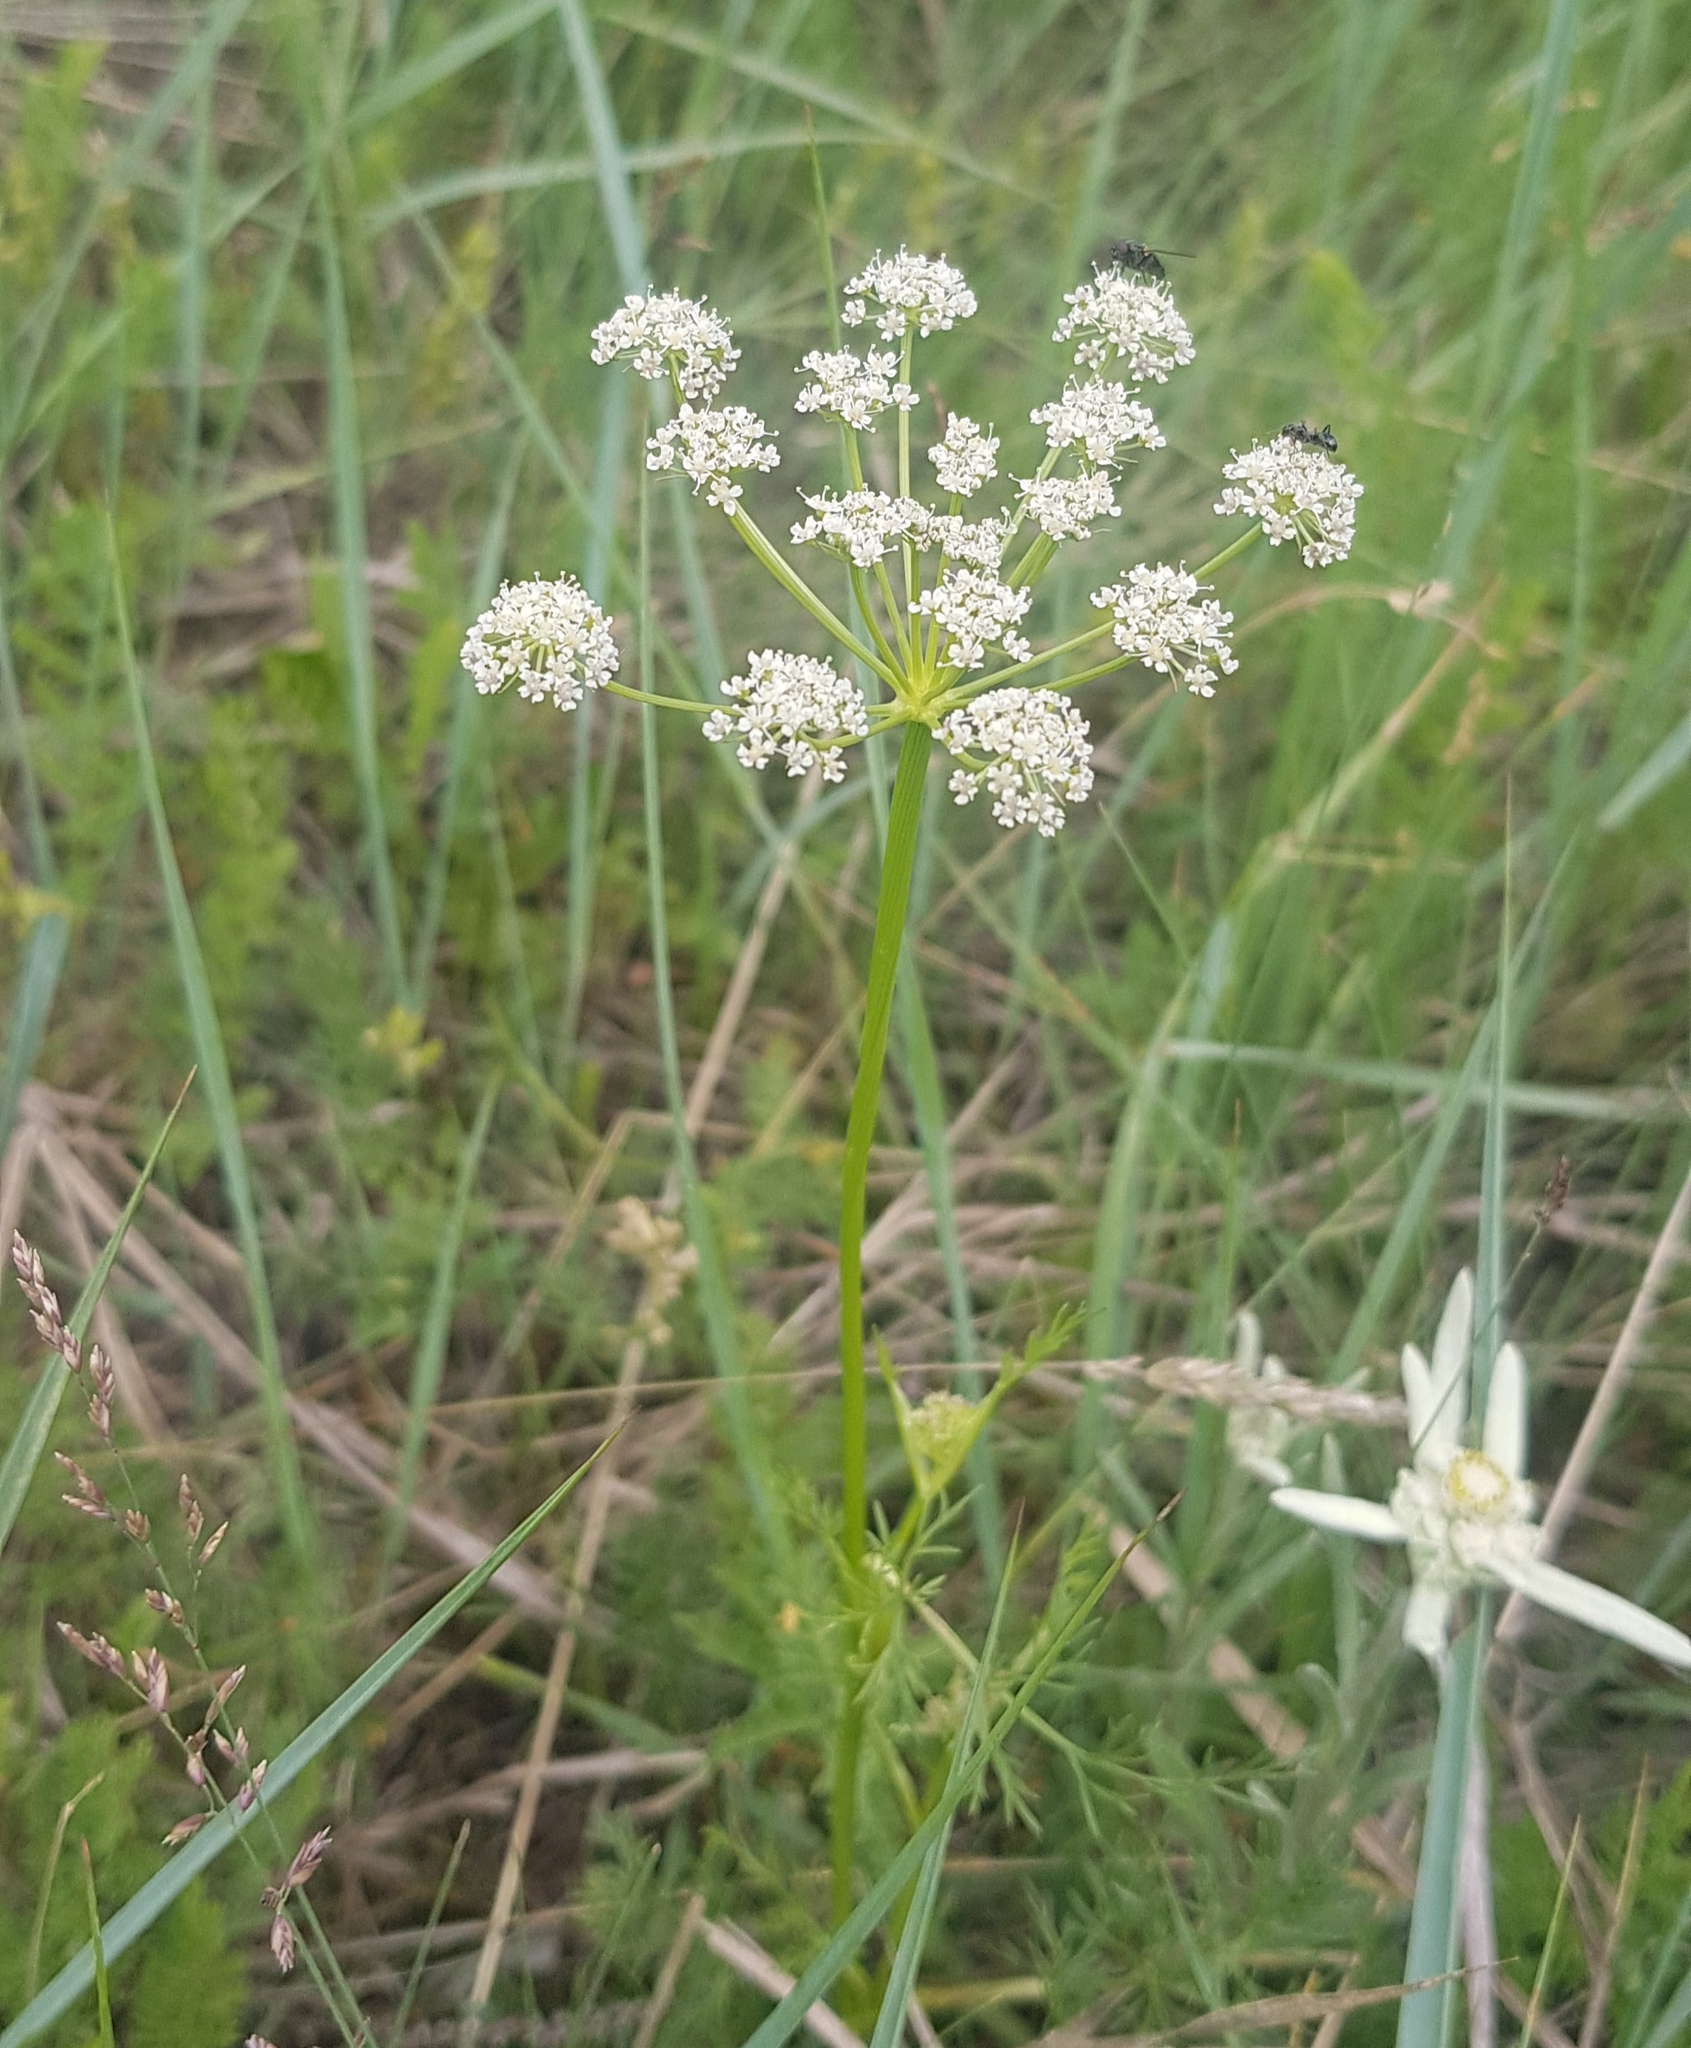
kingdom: Plantae
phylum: Tracheophyta
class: Magnoliopsida
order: Apiales
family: Apiaceae
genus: Peucedanum
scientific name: Peucedanum vaginatum
